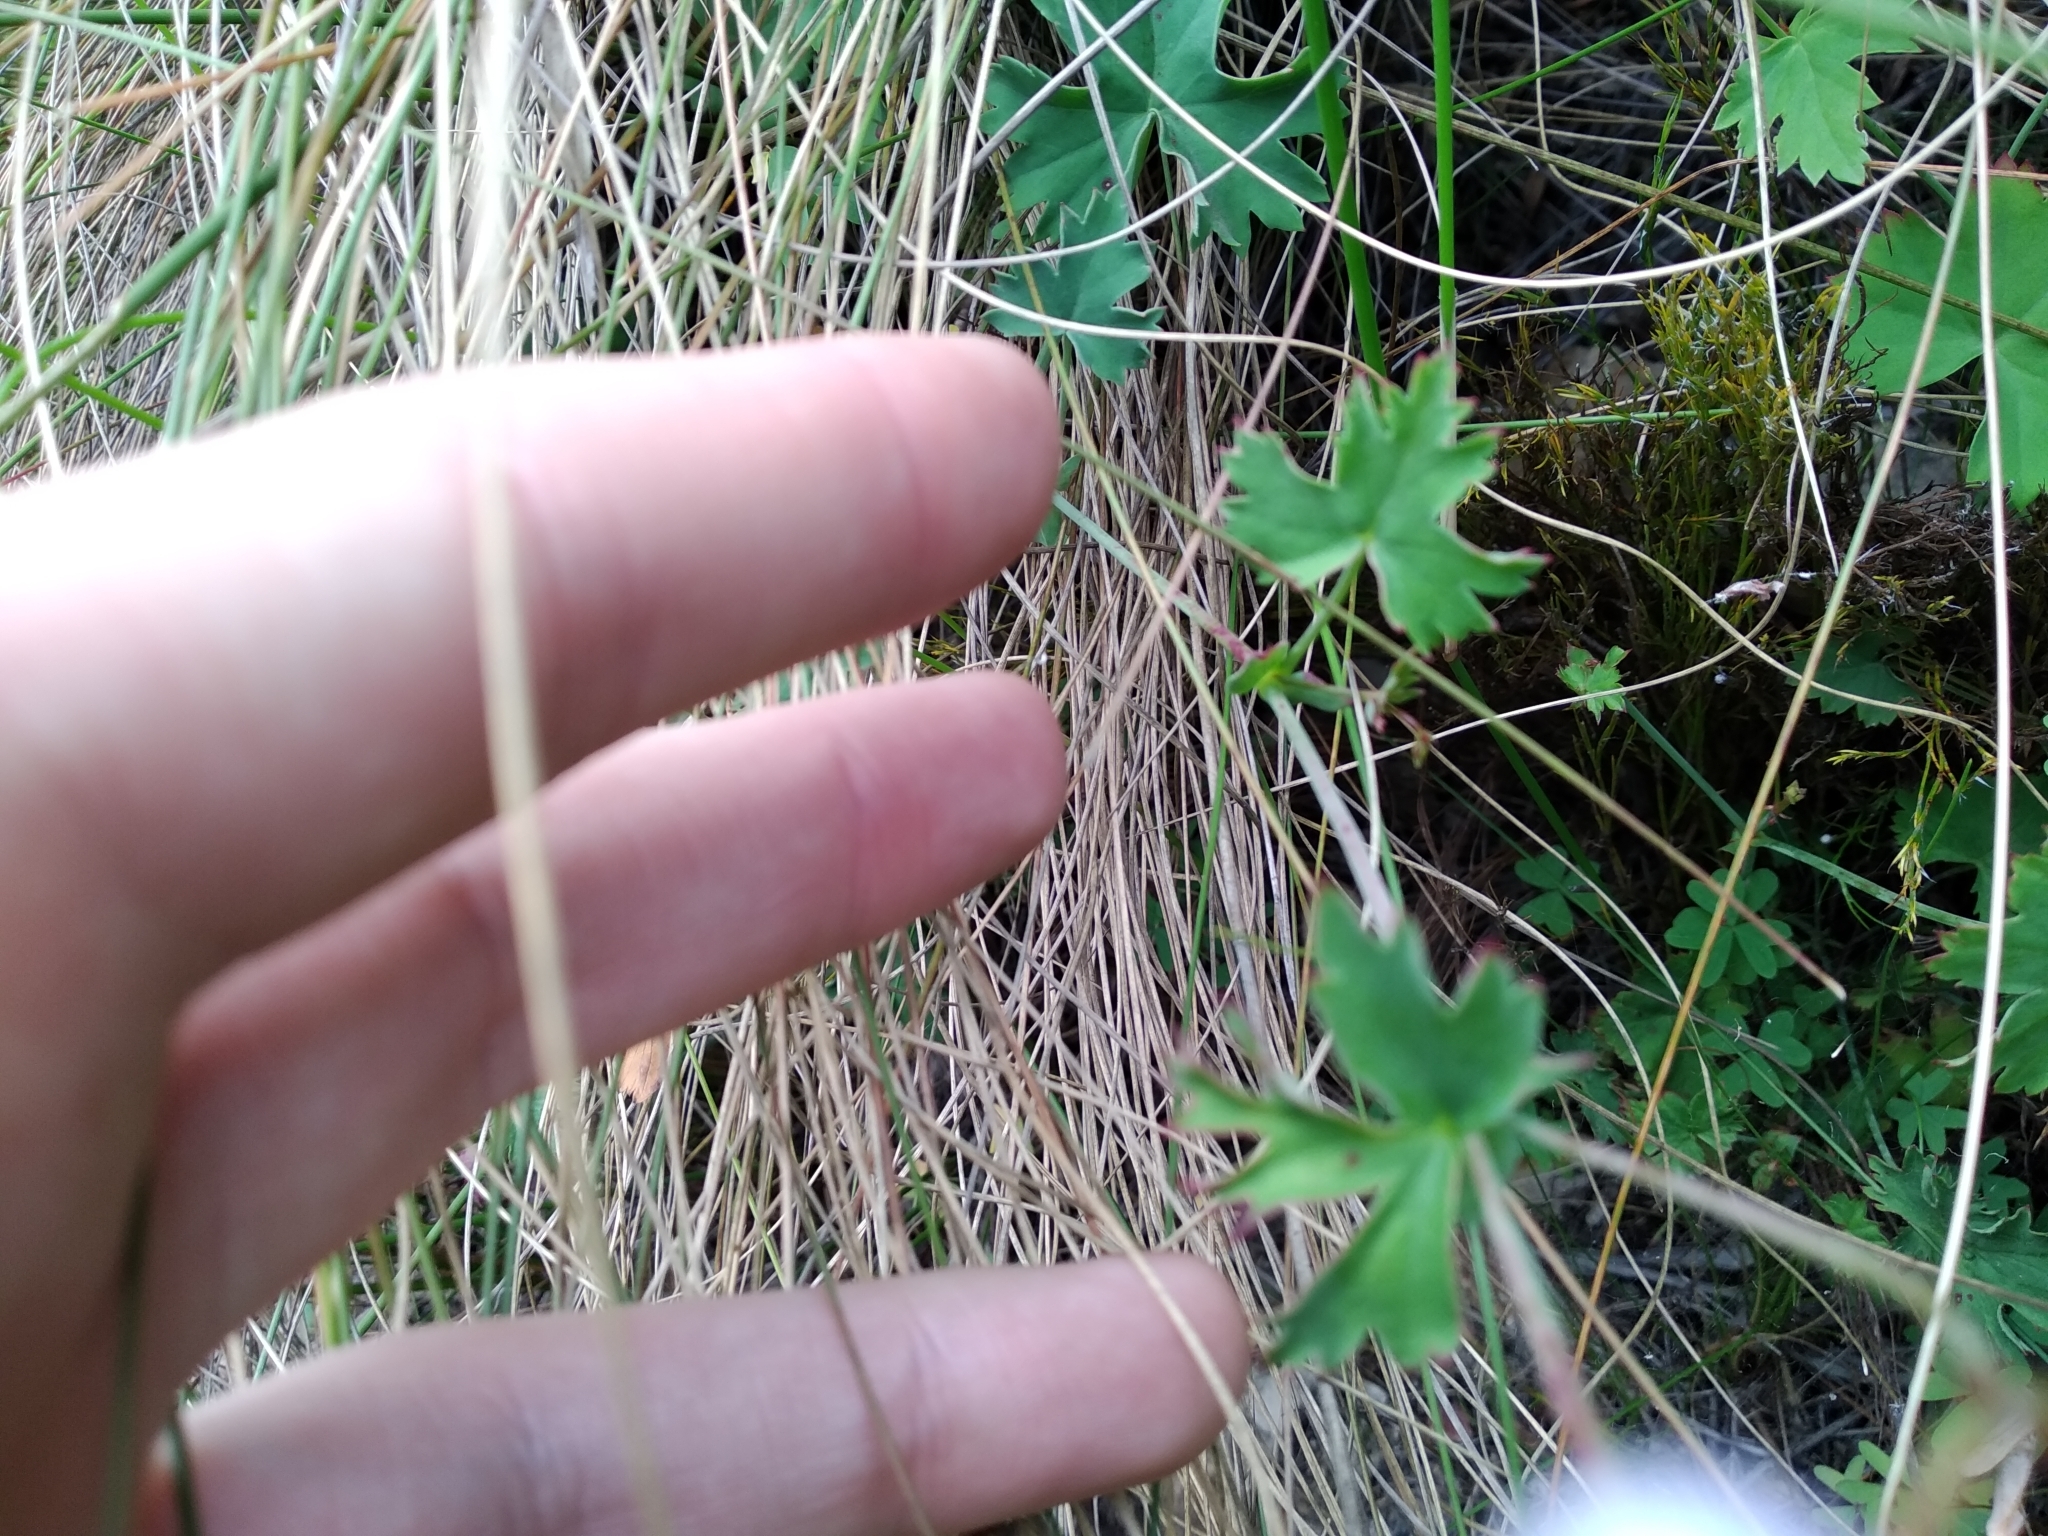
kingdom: Plantae
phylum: Tracheophyta
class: Magnoliopsida
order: Geraniales
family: Geraniaceae
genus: Pelargonium
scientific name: Pelargonium patulum
